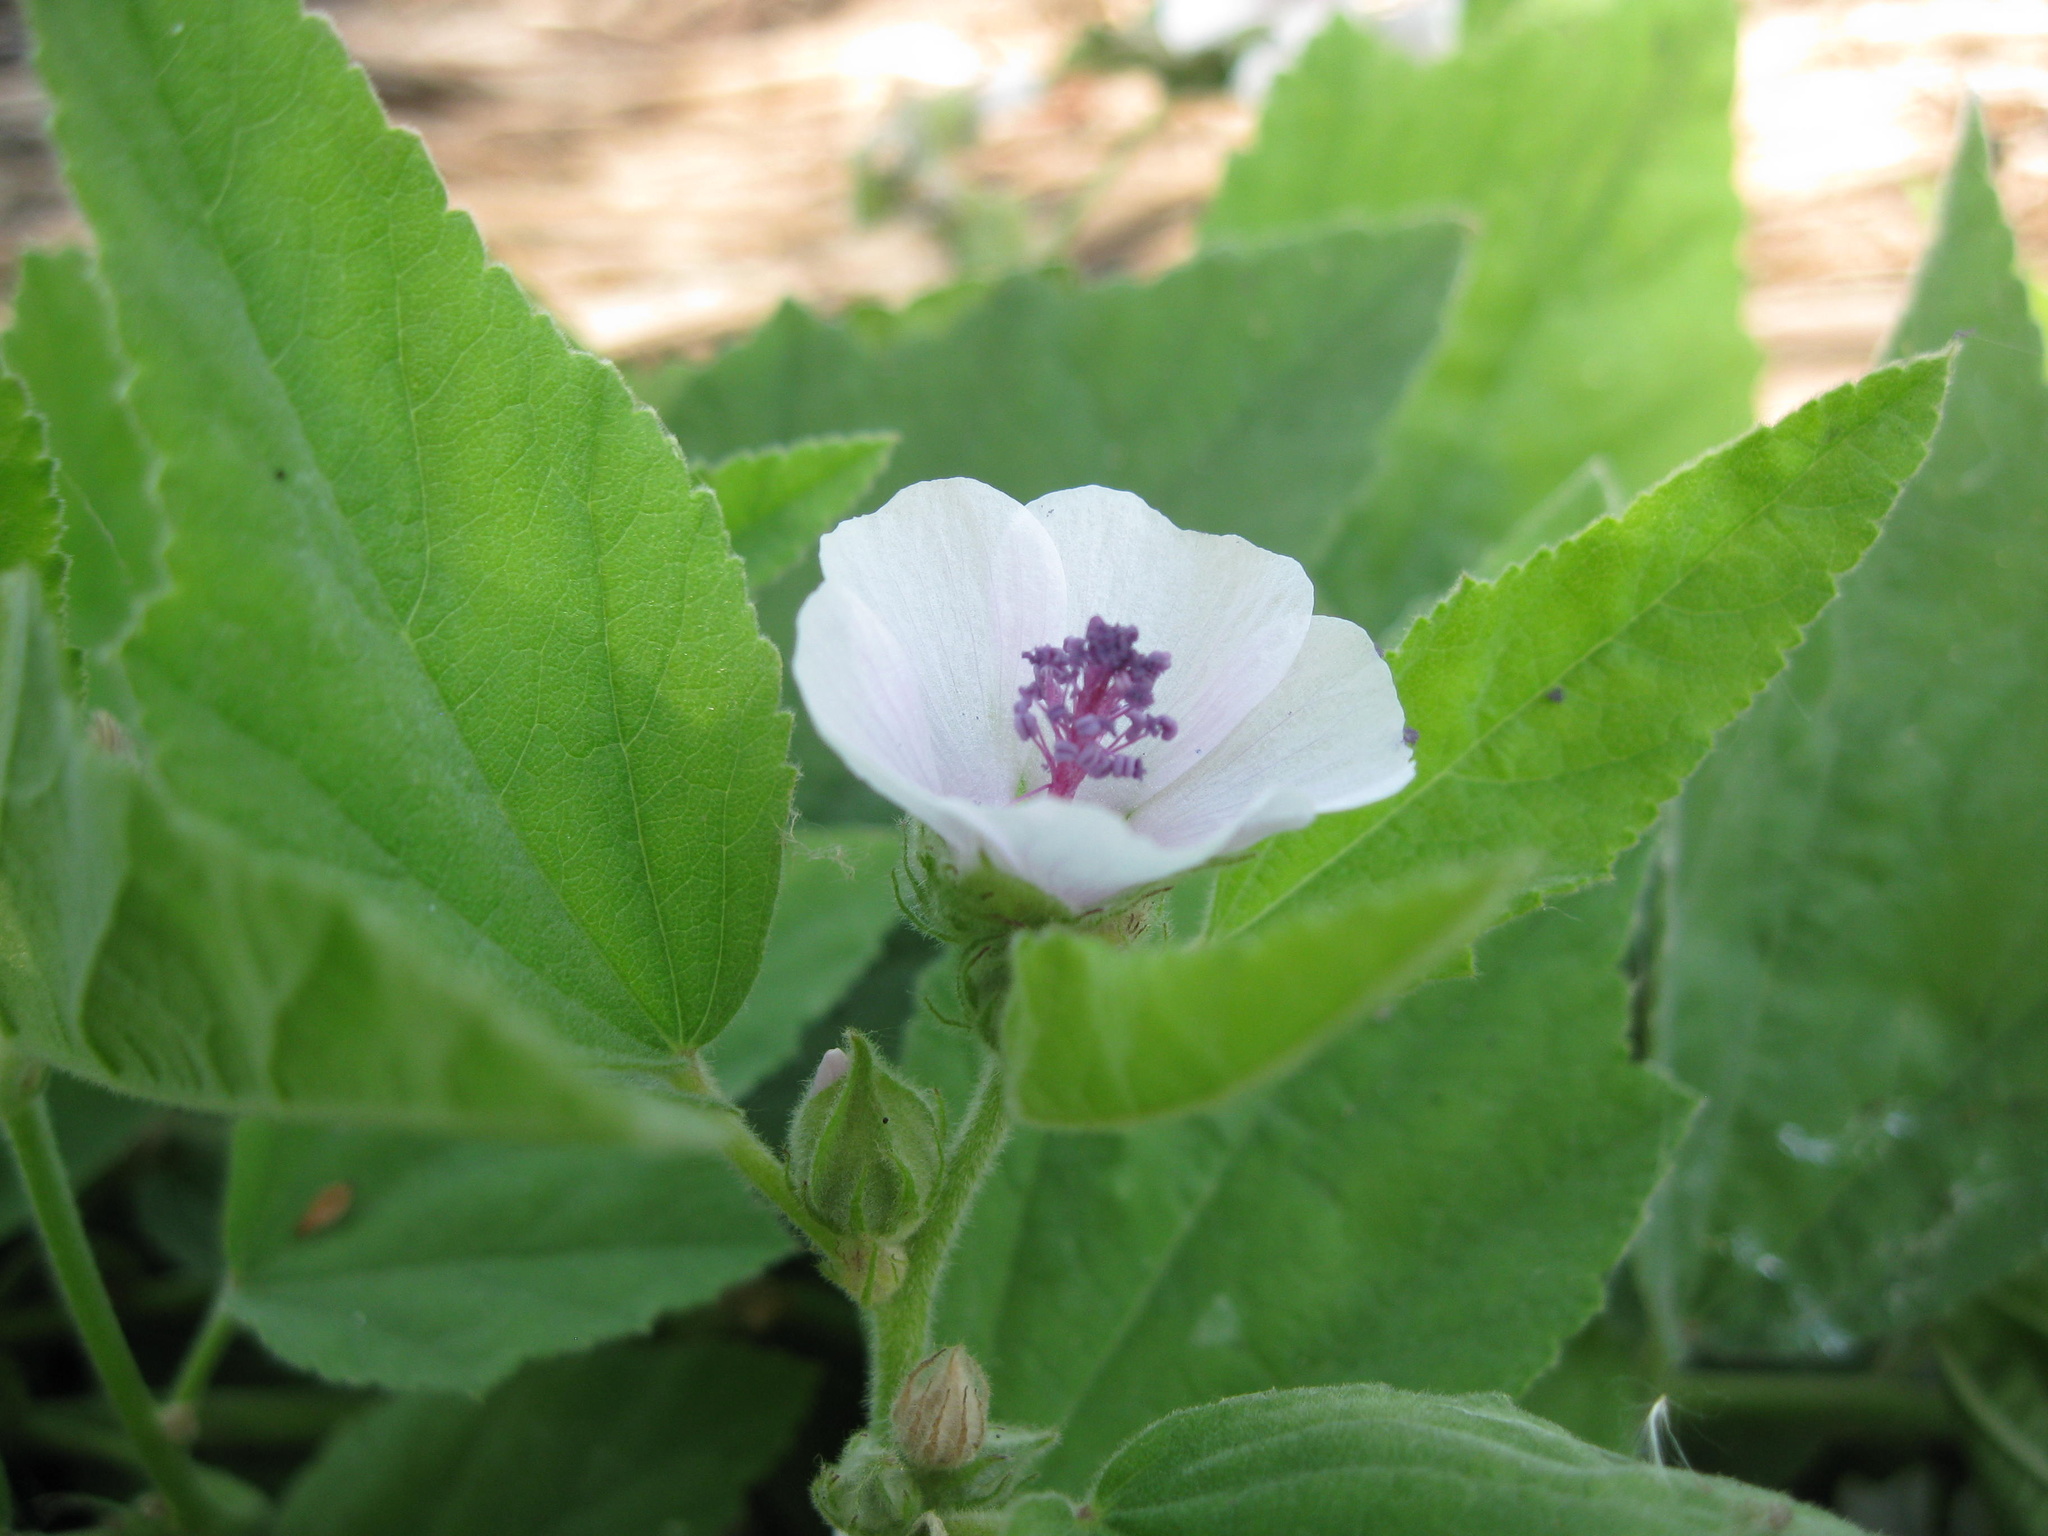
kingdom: Plantae
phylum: Tracheophyta
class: Magnoliopsida
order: Malvales
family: Malvaceae
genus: Althaea
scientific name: Althaea officinalis
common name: Marsh-mallow
